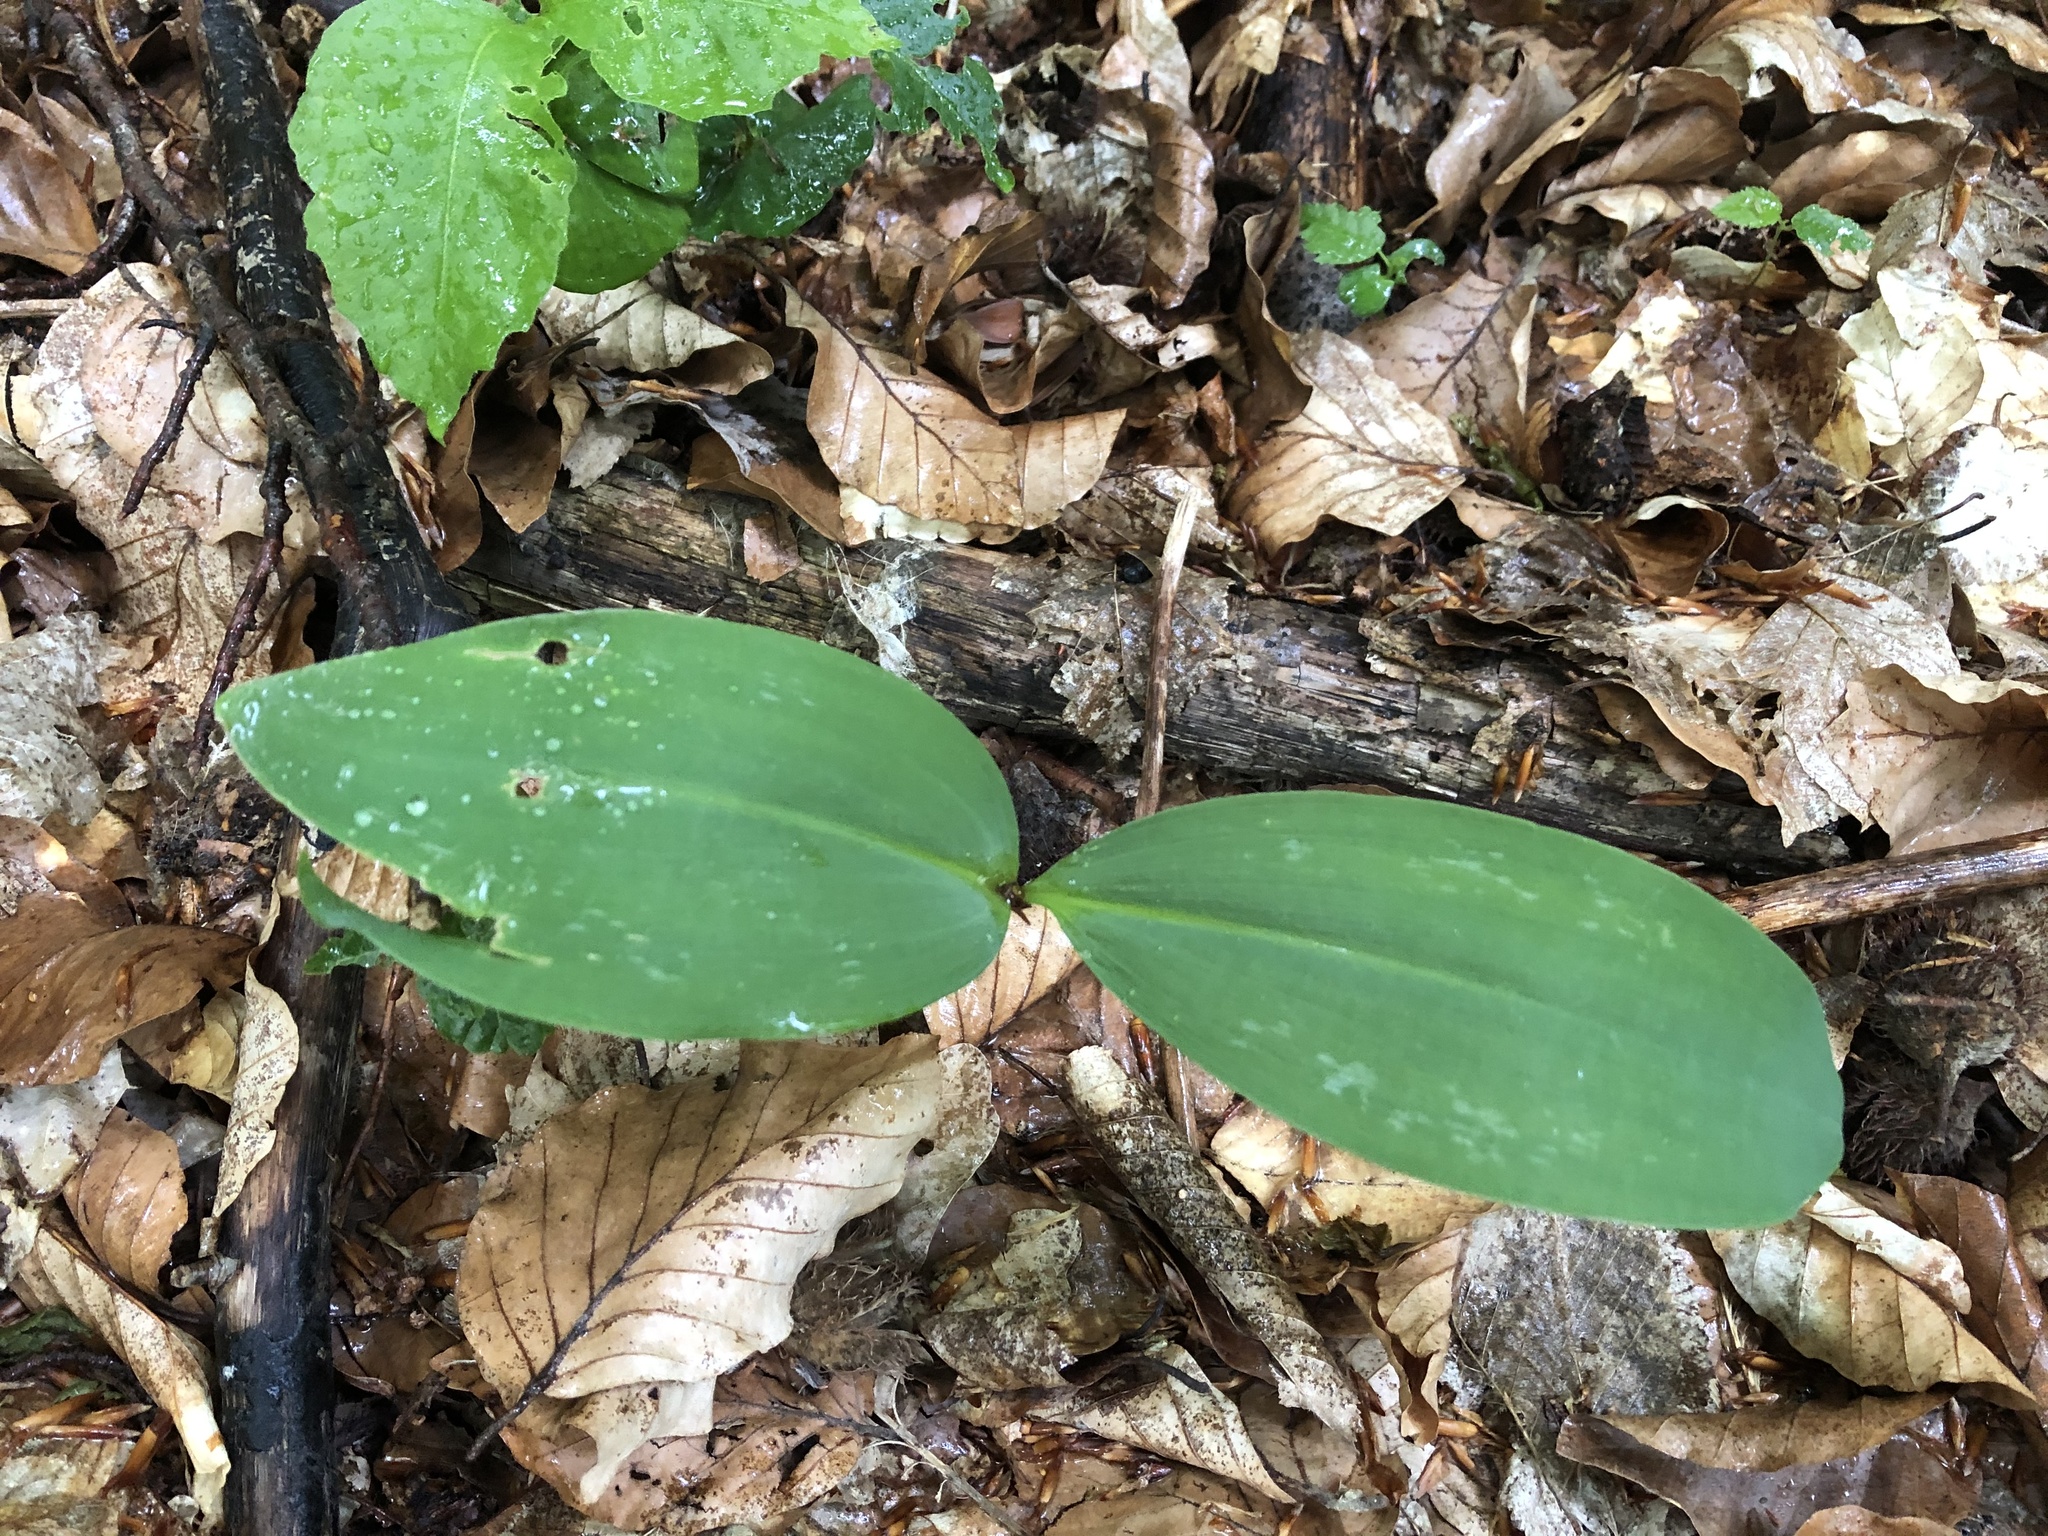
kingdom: Plantae
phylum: Tracheophyta
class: Liliopsida
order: Asparagales
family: Asparagaceae
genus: Convallaria
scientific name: Convallaria majalis
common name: Lily-of-the-valley
